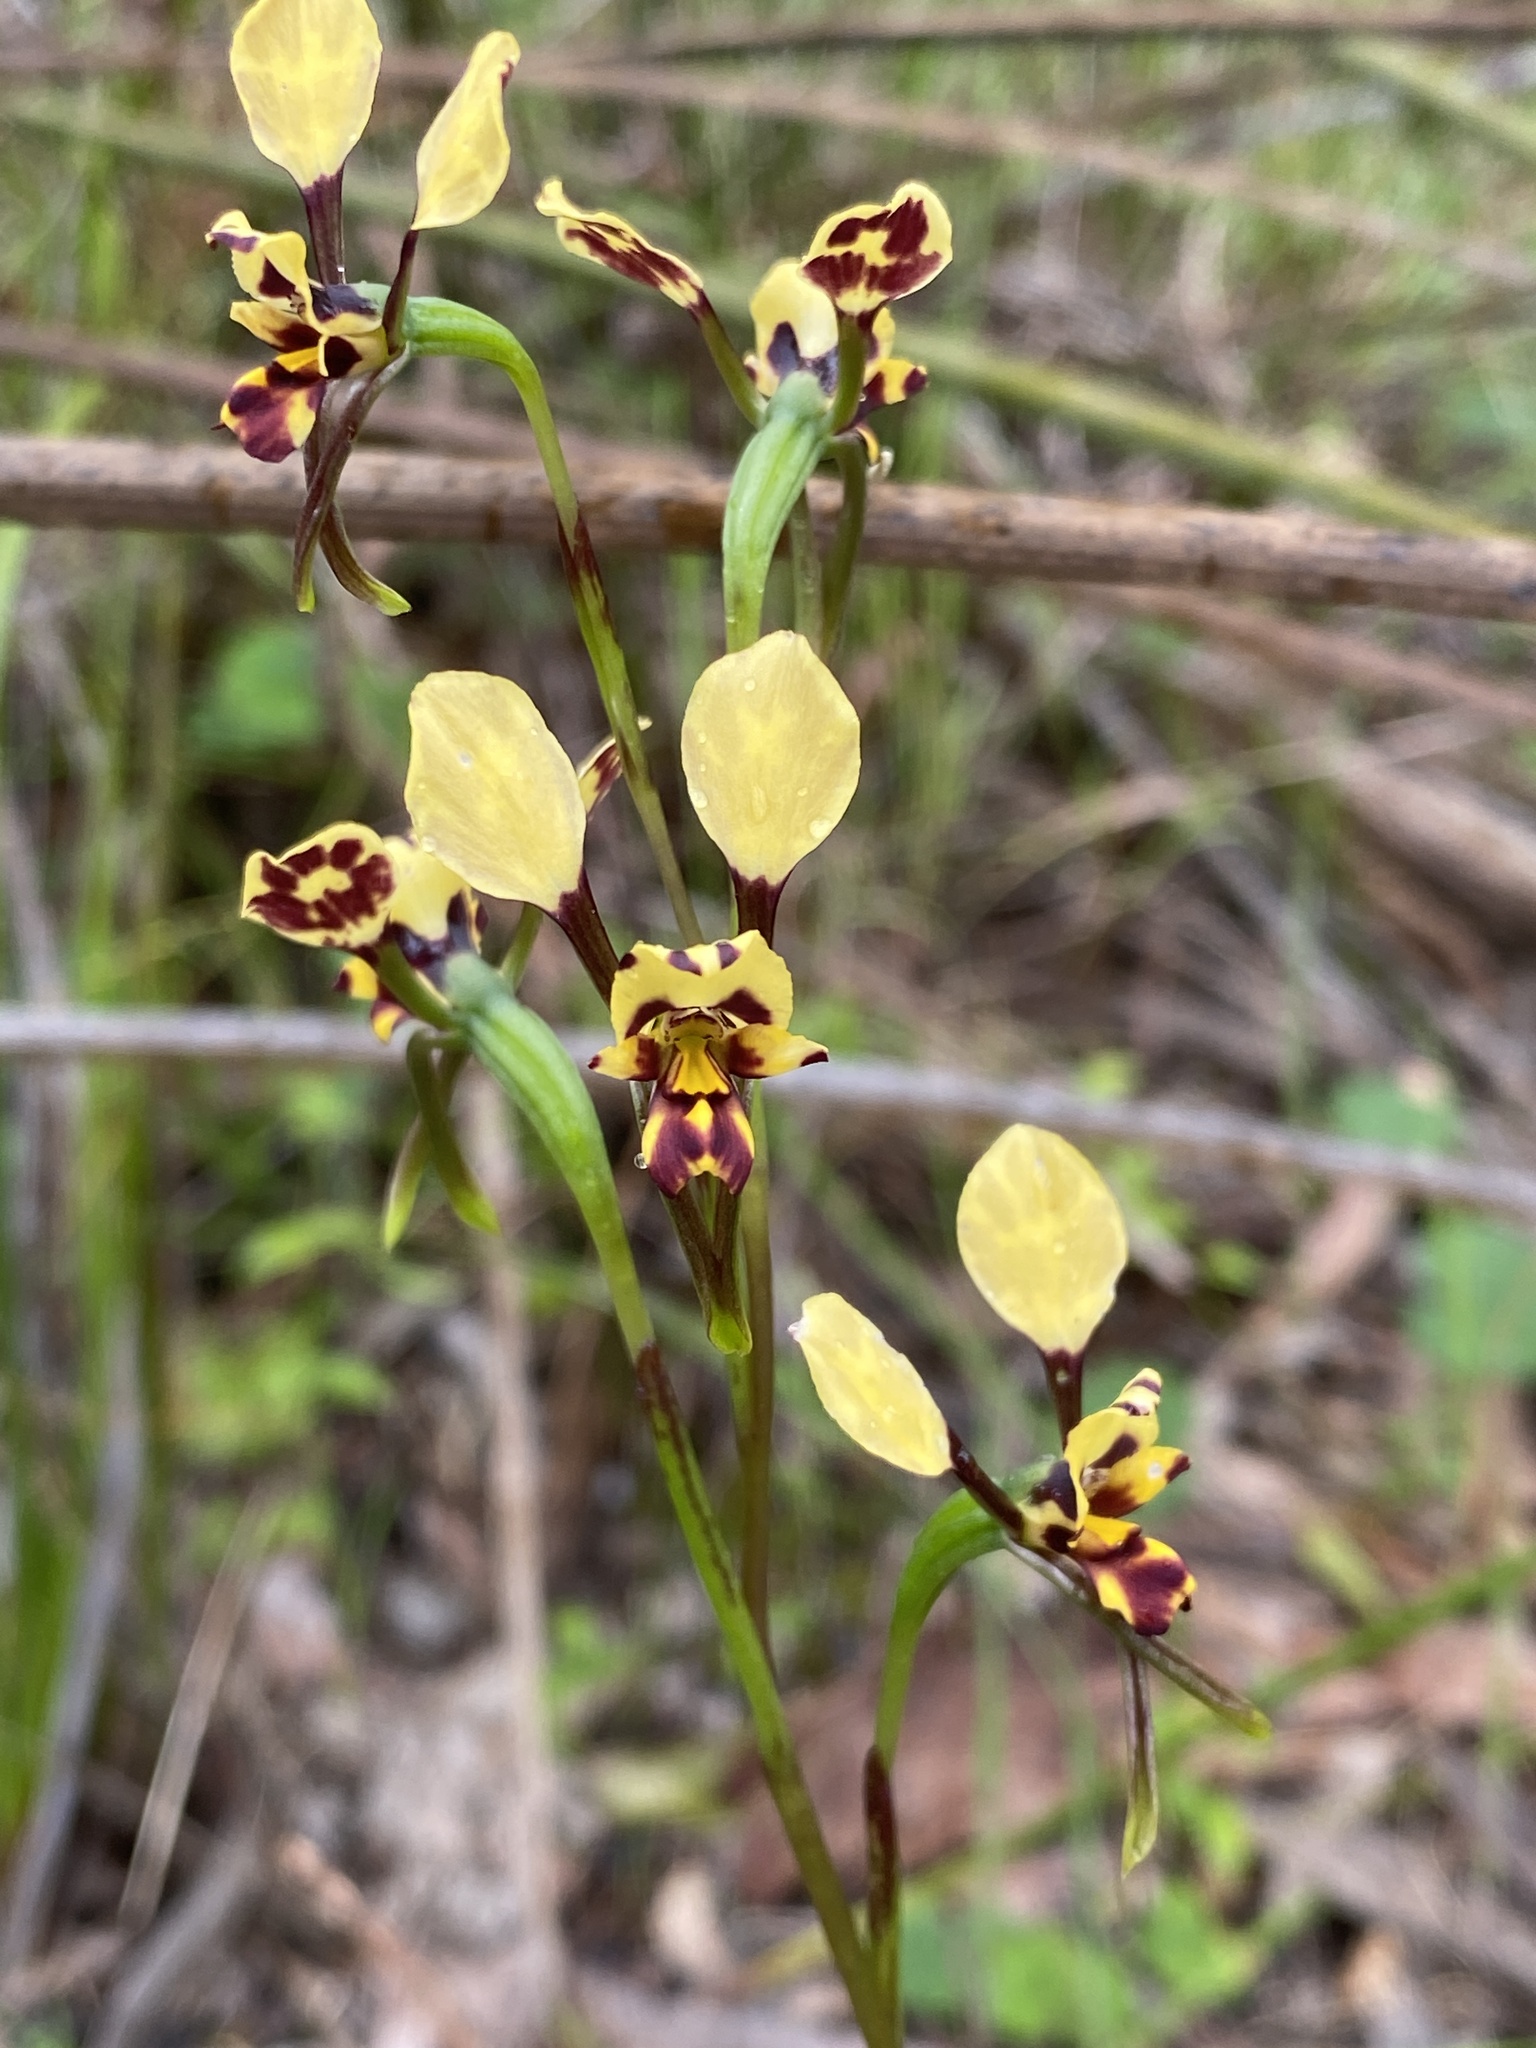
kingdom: Plantae
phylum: Tracheophyta
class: Liliopsida
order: Asparagales
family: Orchidaceae
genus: Diuris
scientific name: Diuris pardina
